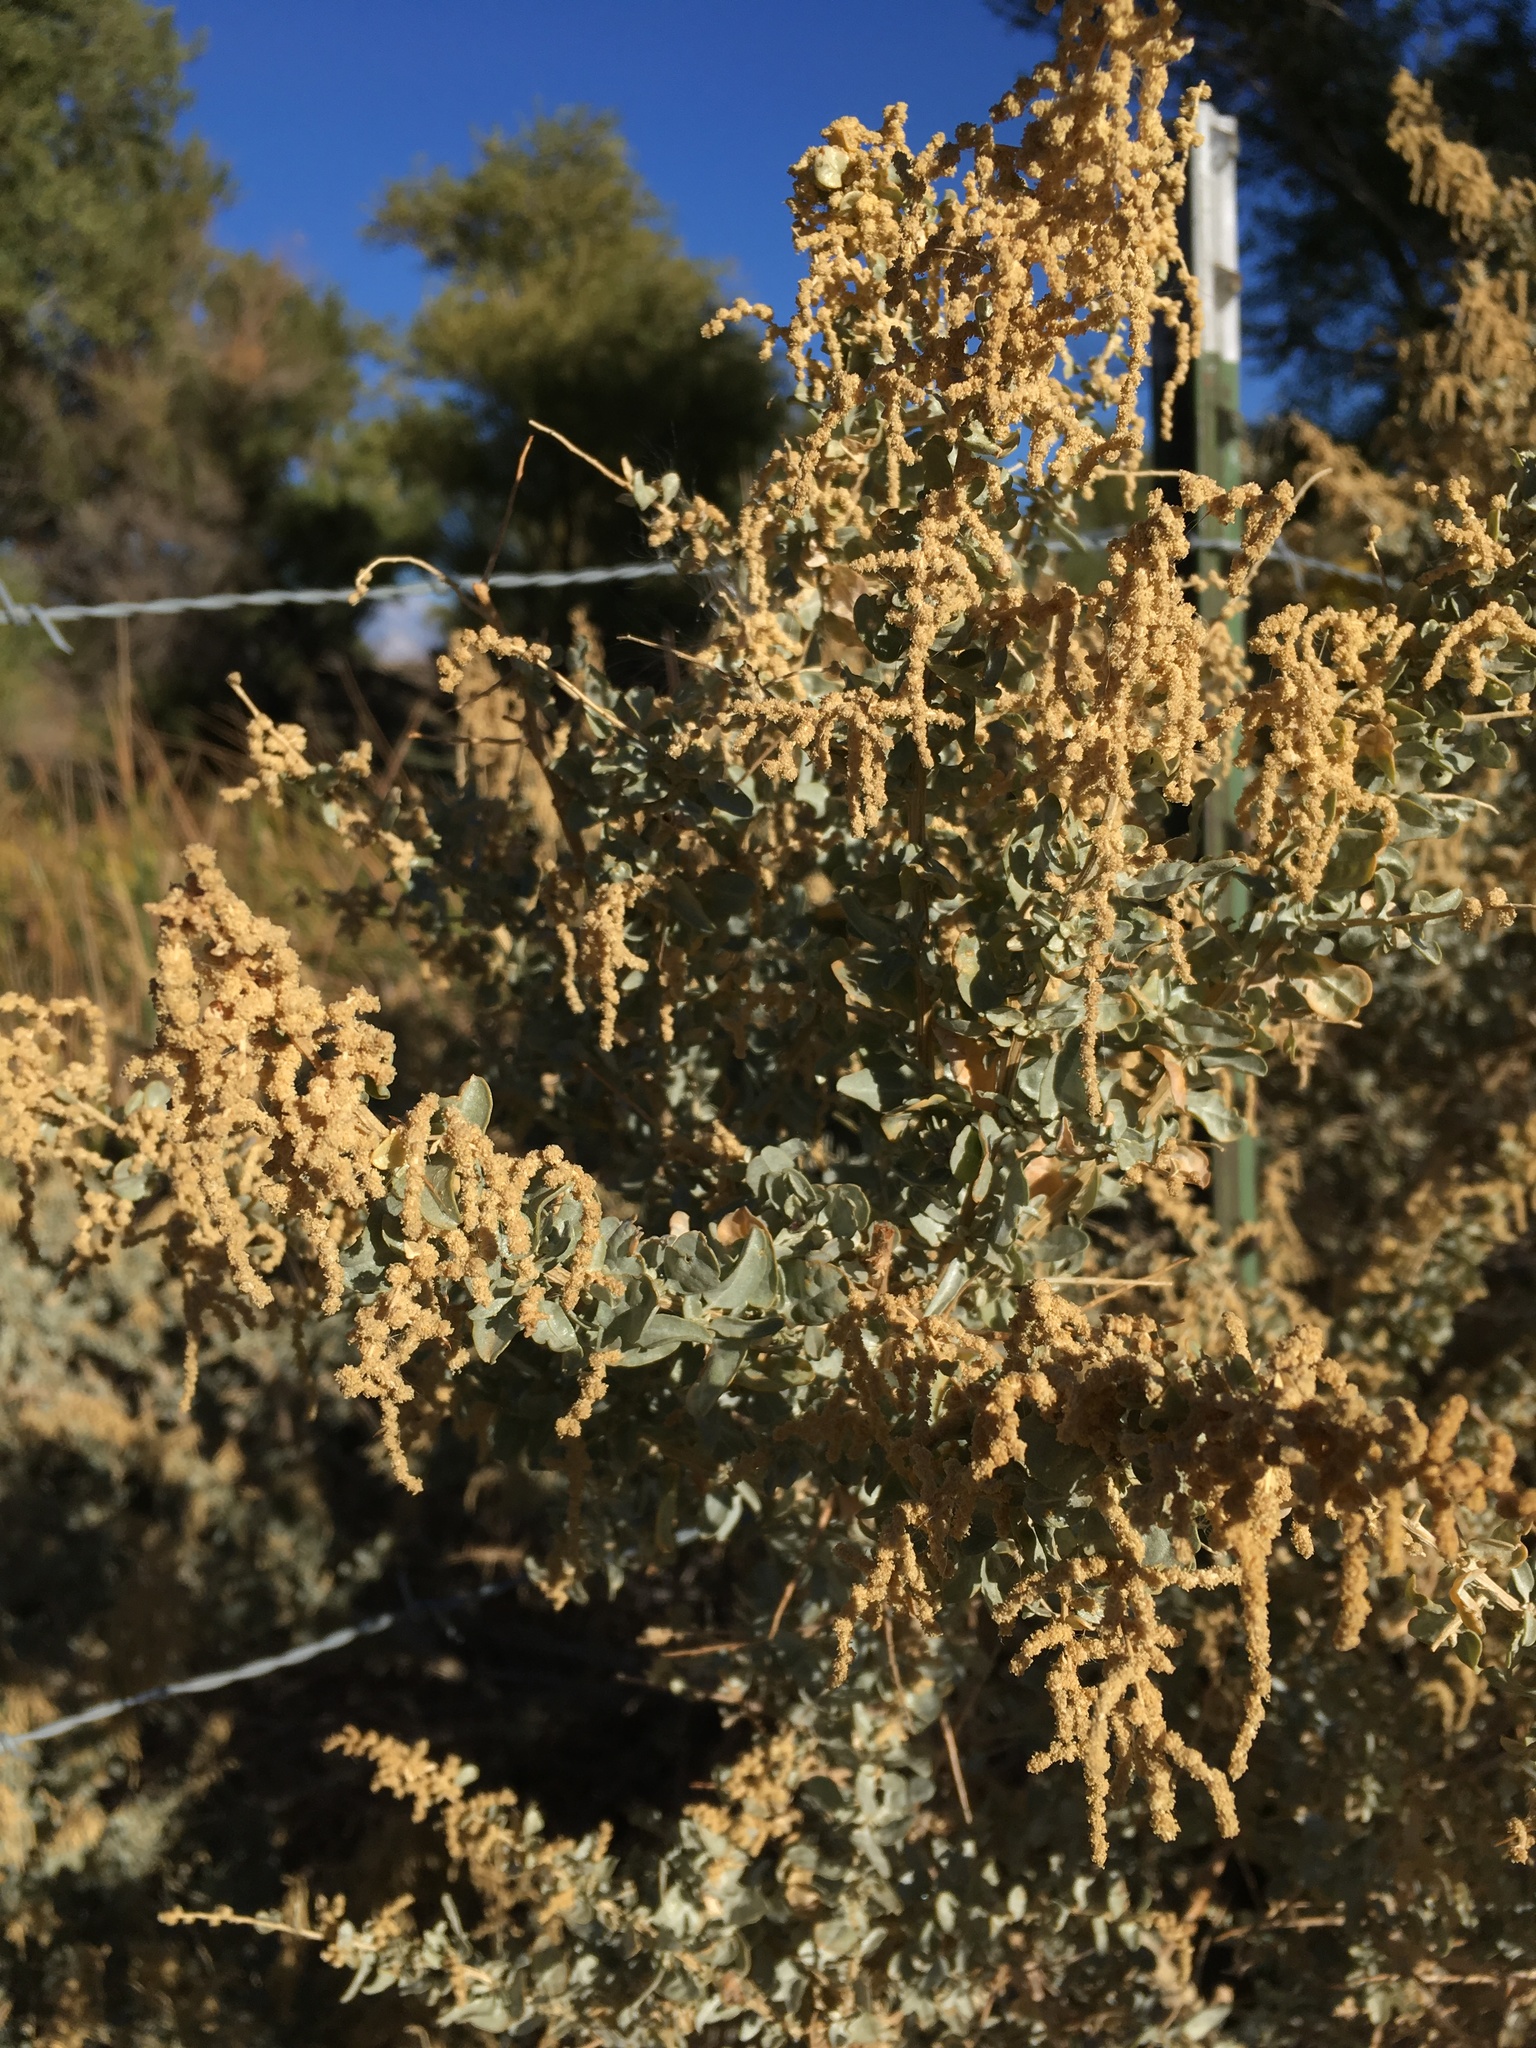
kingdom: Plantae
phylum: Tracheophyta
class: Magnoliopsida
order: Caryophyllales
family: Amaranthaceae
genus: Atriplex
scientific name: Atriplex torreyi
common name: Torrey's saltbush
